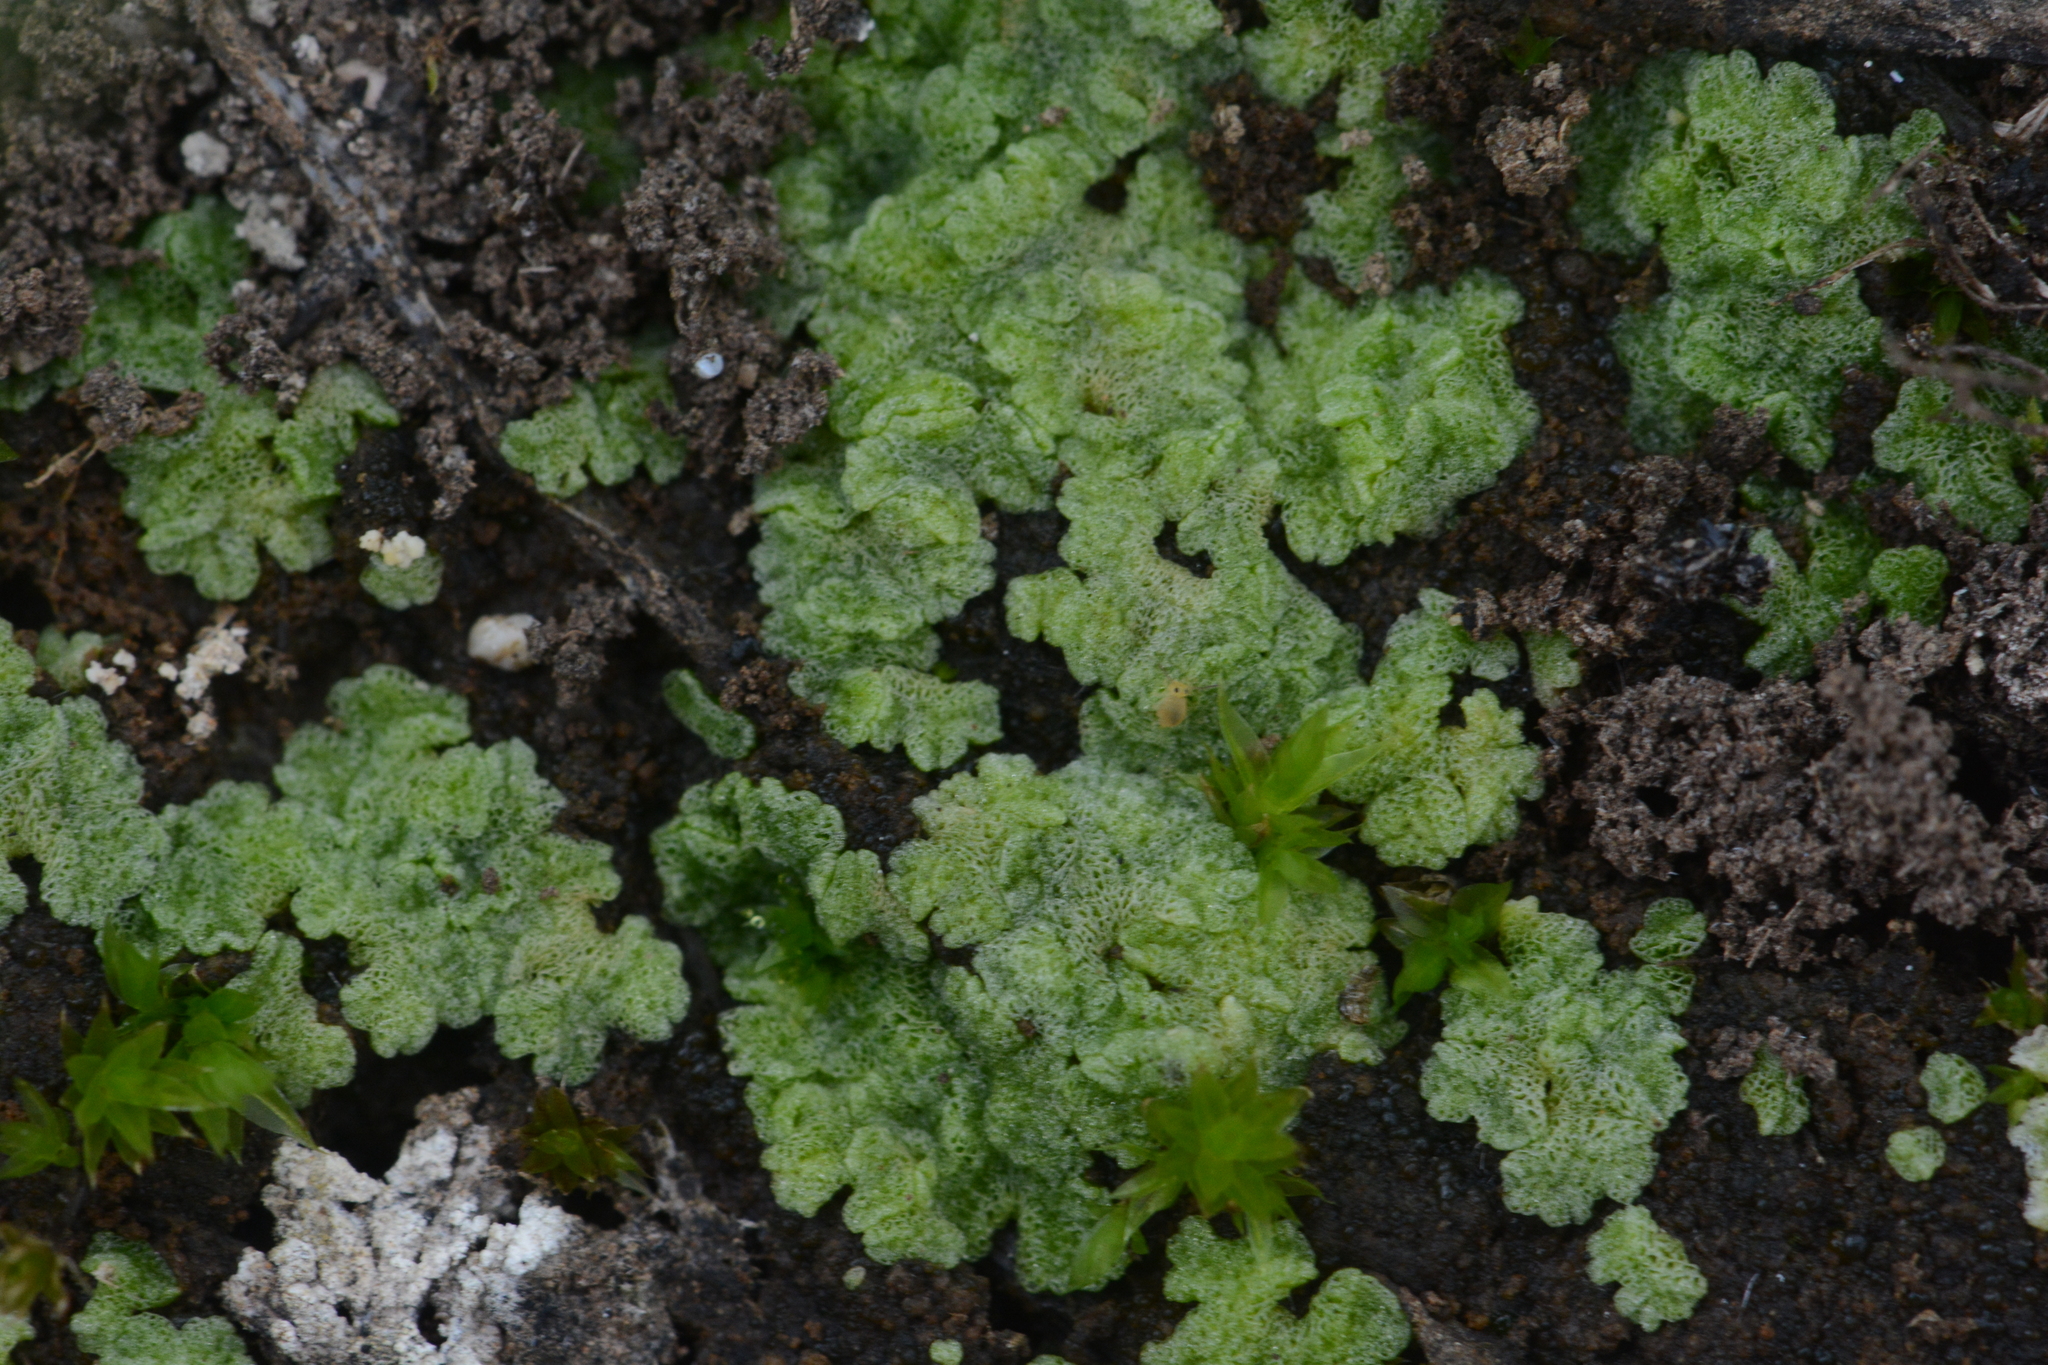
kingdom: Plantae
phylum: Marchantiophyta
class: Marchantiopsida
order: Marchantiales
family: Ricciaceae
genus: Riccia
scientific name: Riccia cavernosa
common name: Cavernous crystalwort
